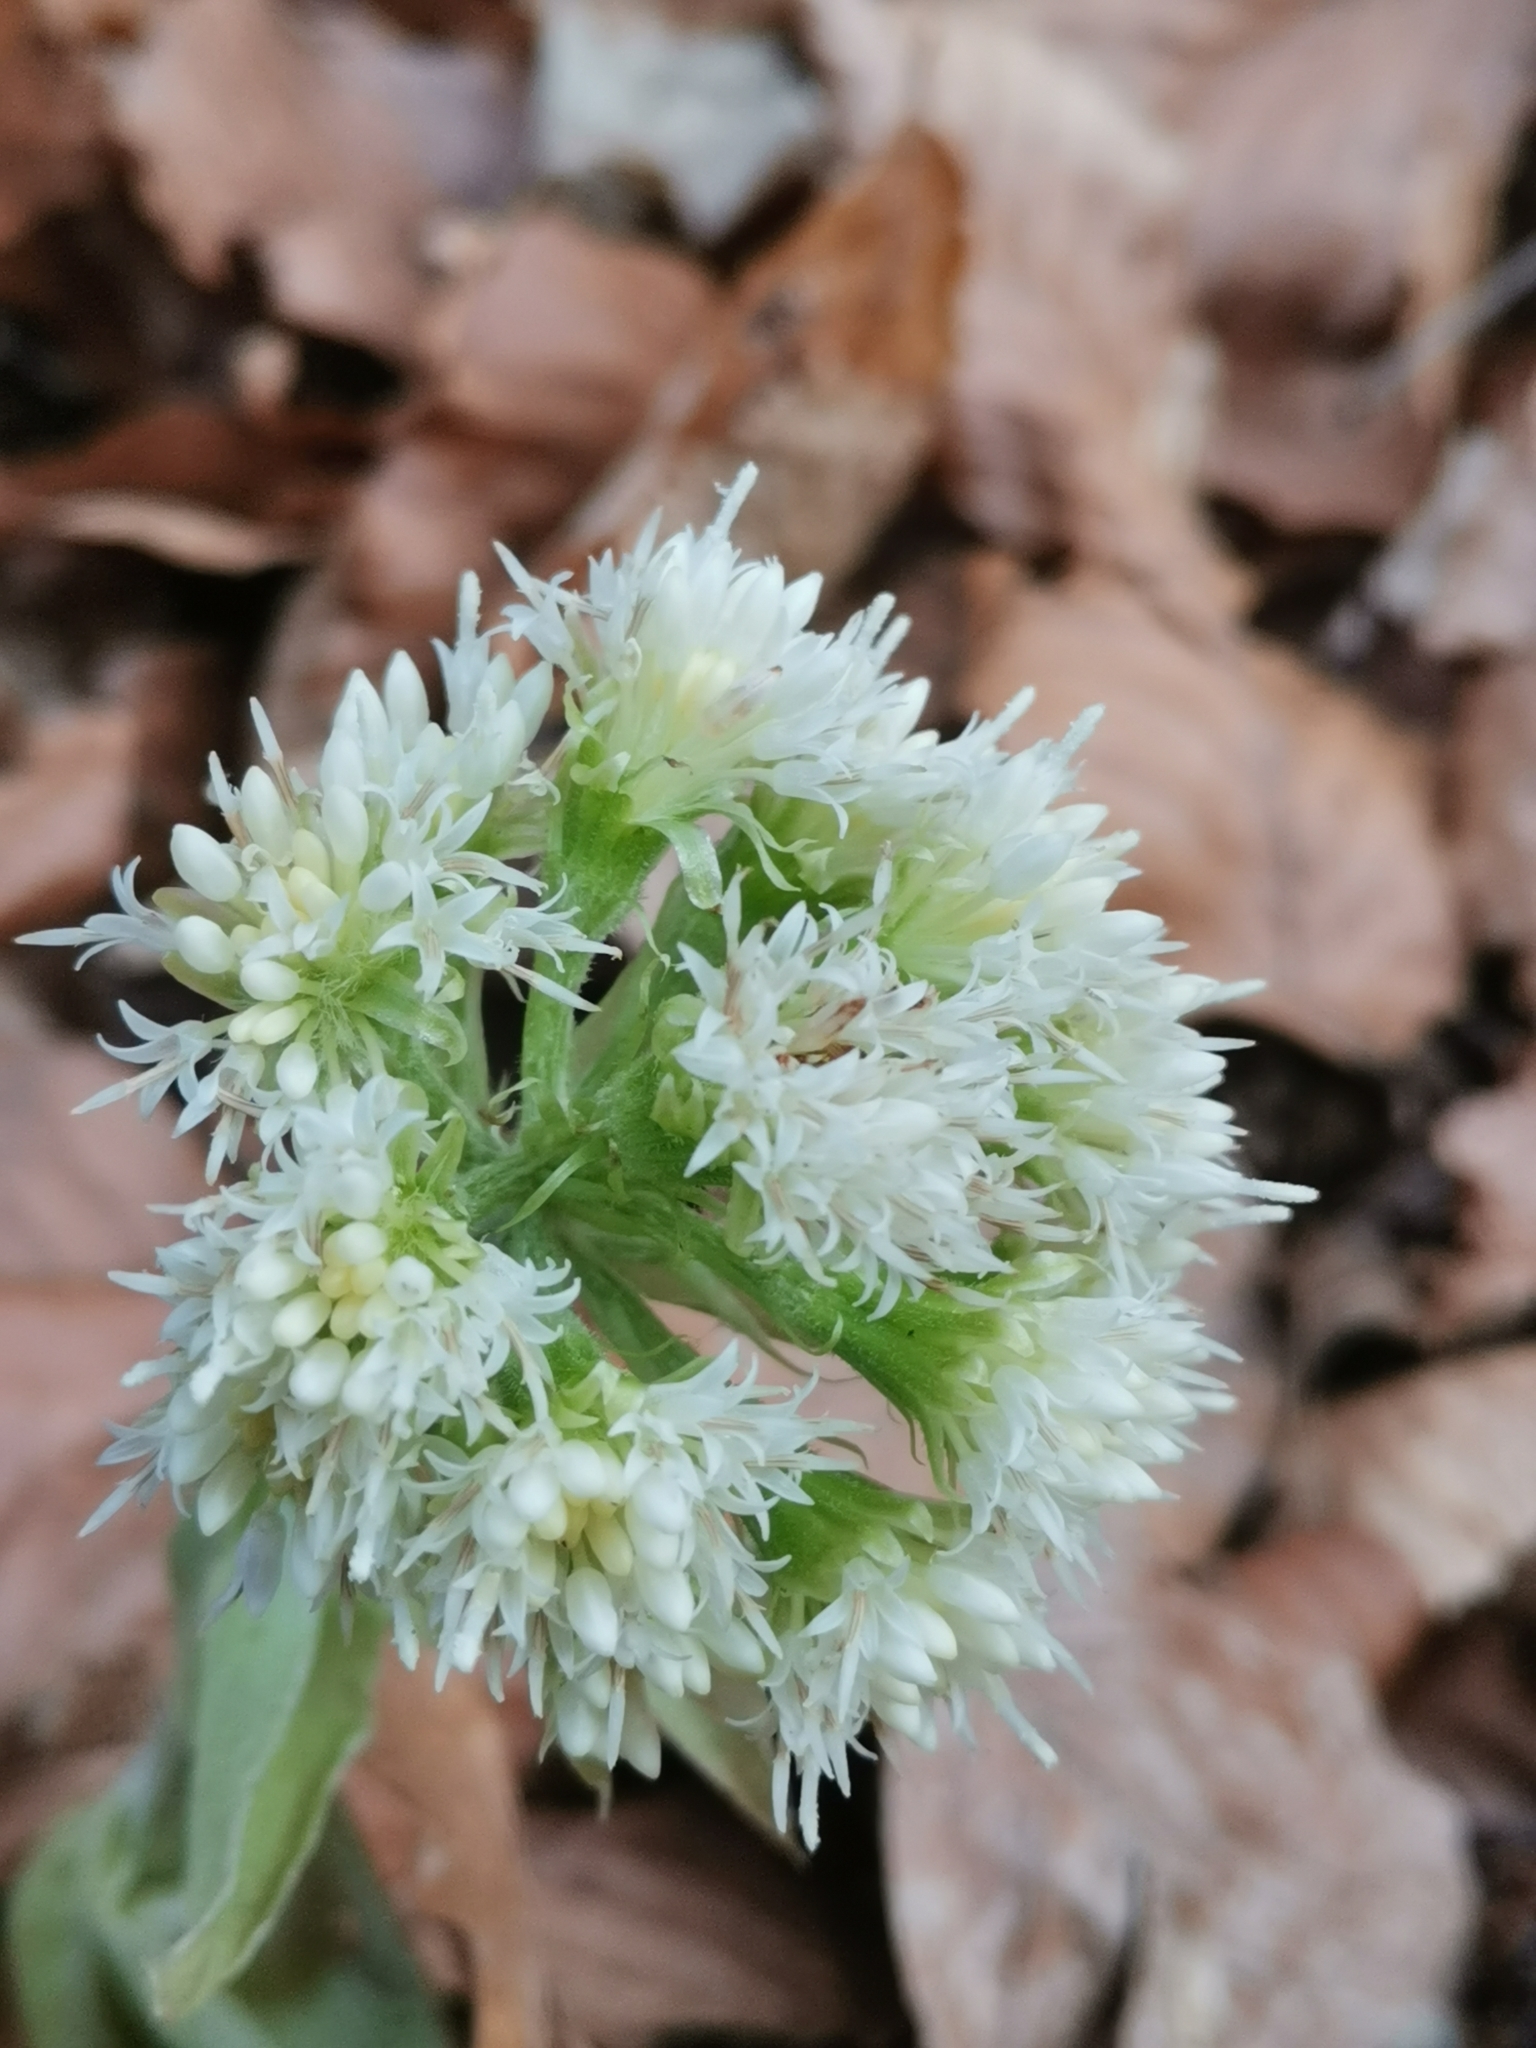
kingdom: Plantae
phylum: Tracheophyta
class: Magnoliopsida
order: Asterales
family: Asteraceae
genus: Petasites
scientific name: Petasites albus
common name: White butterbur
